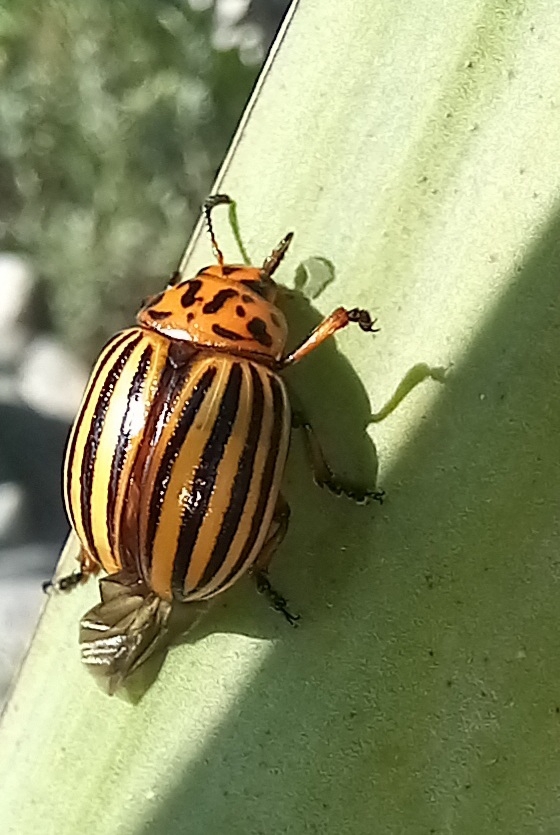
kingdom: Animalia
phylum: Arthropoda
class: Insecta
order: Coleoptera
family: Chrysomelidae
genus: Leptinotarsa
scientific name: Leptinotarsa decemlineata
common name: Colorado potato beetle
